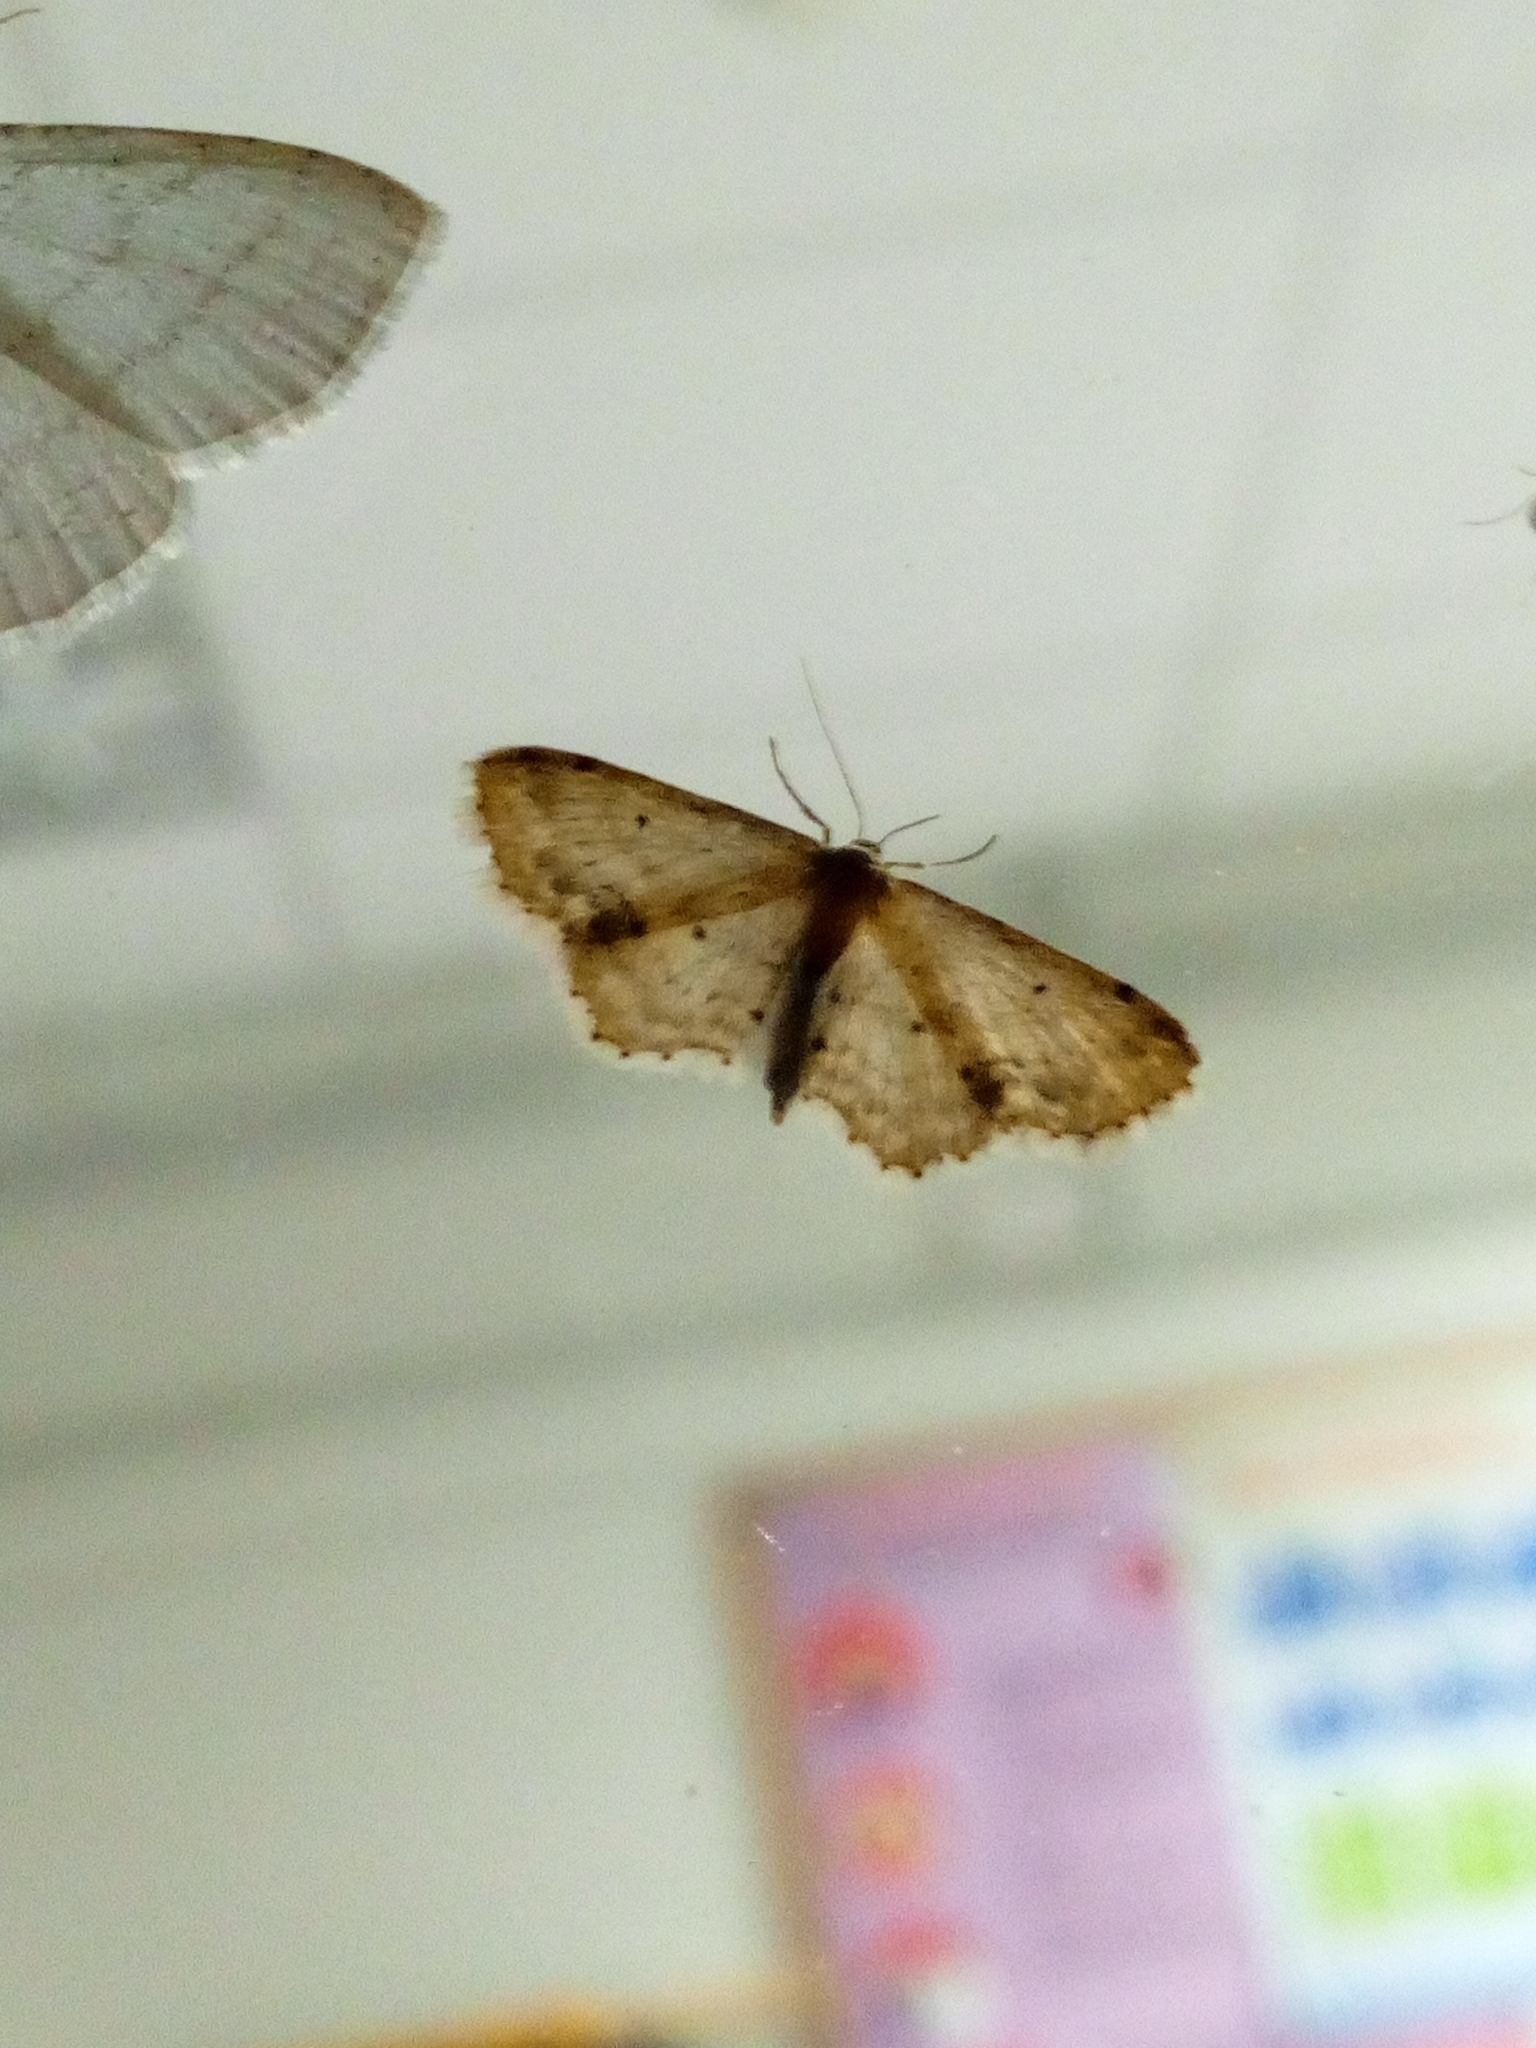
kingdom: Animalia
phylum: Arthropoda
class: Insecta
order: Lepidoptera
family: Geometridae
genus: Idaea
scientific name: Idaea dimidiata
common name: Single-dotted wave
